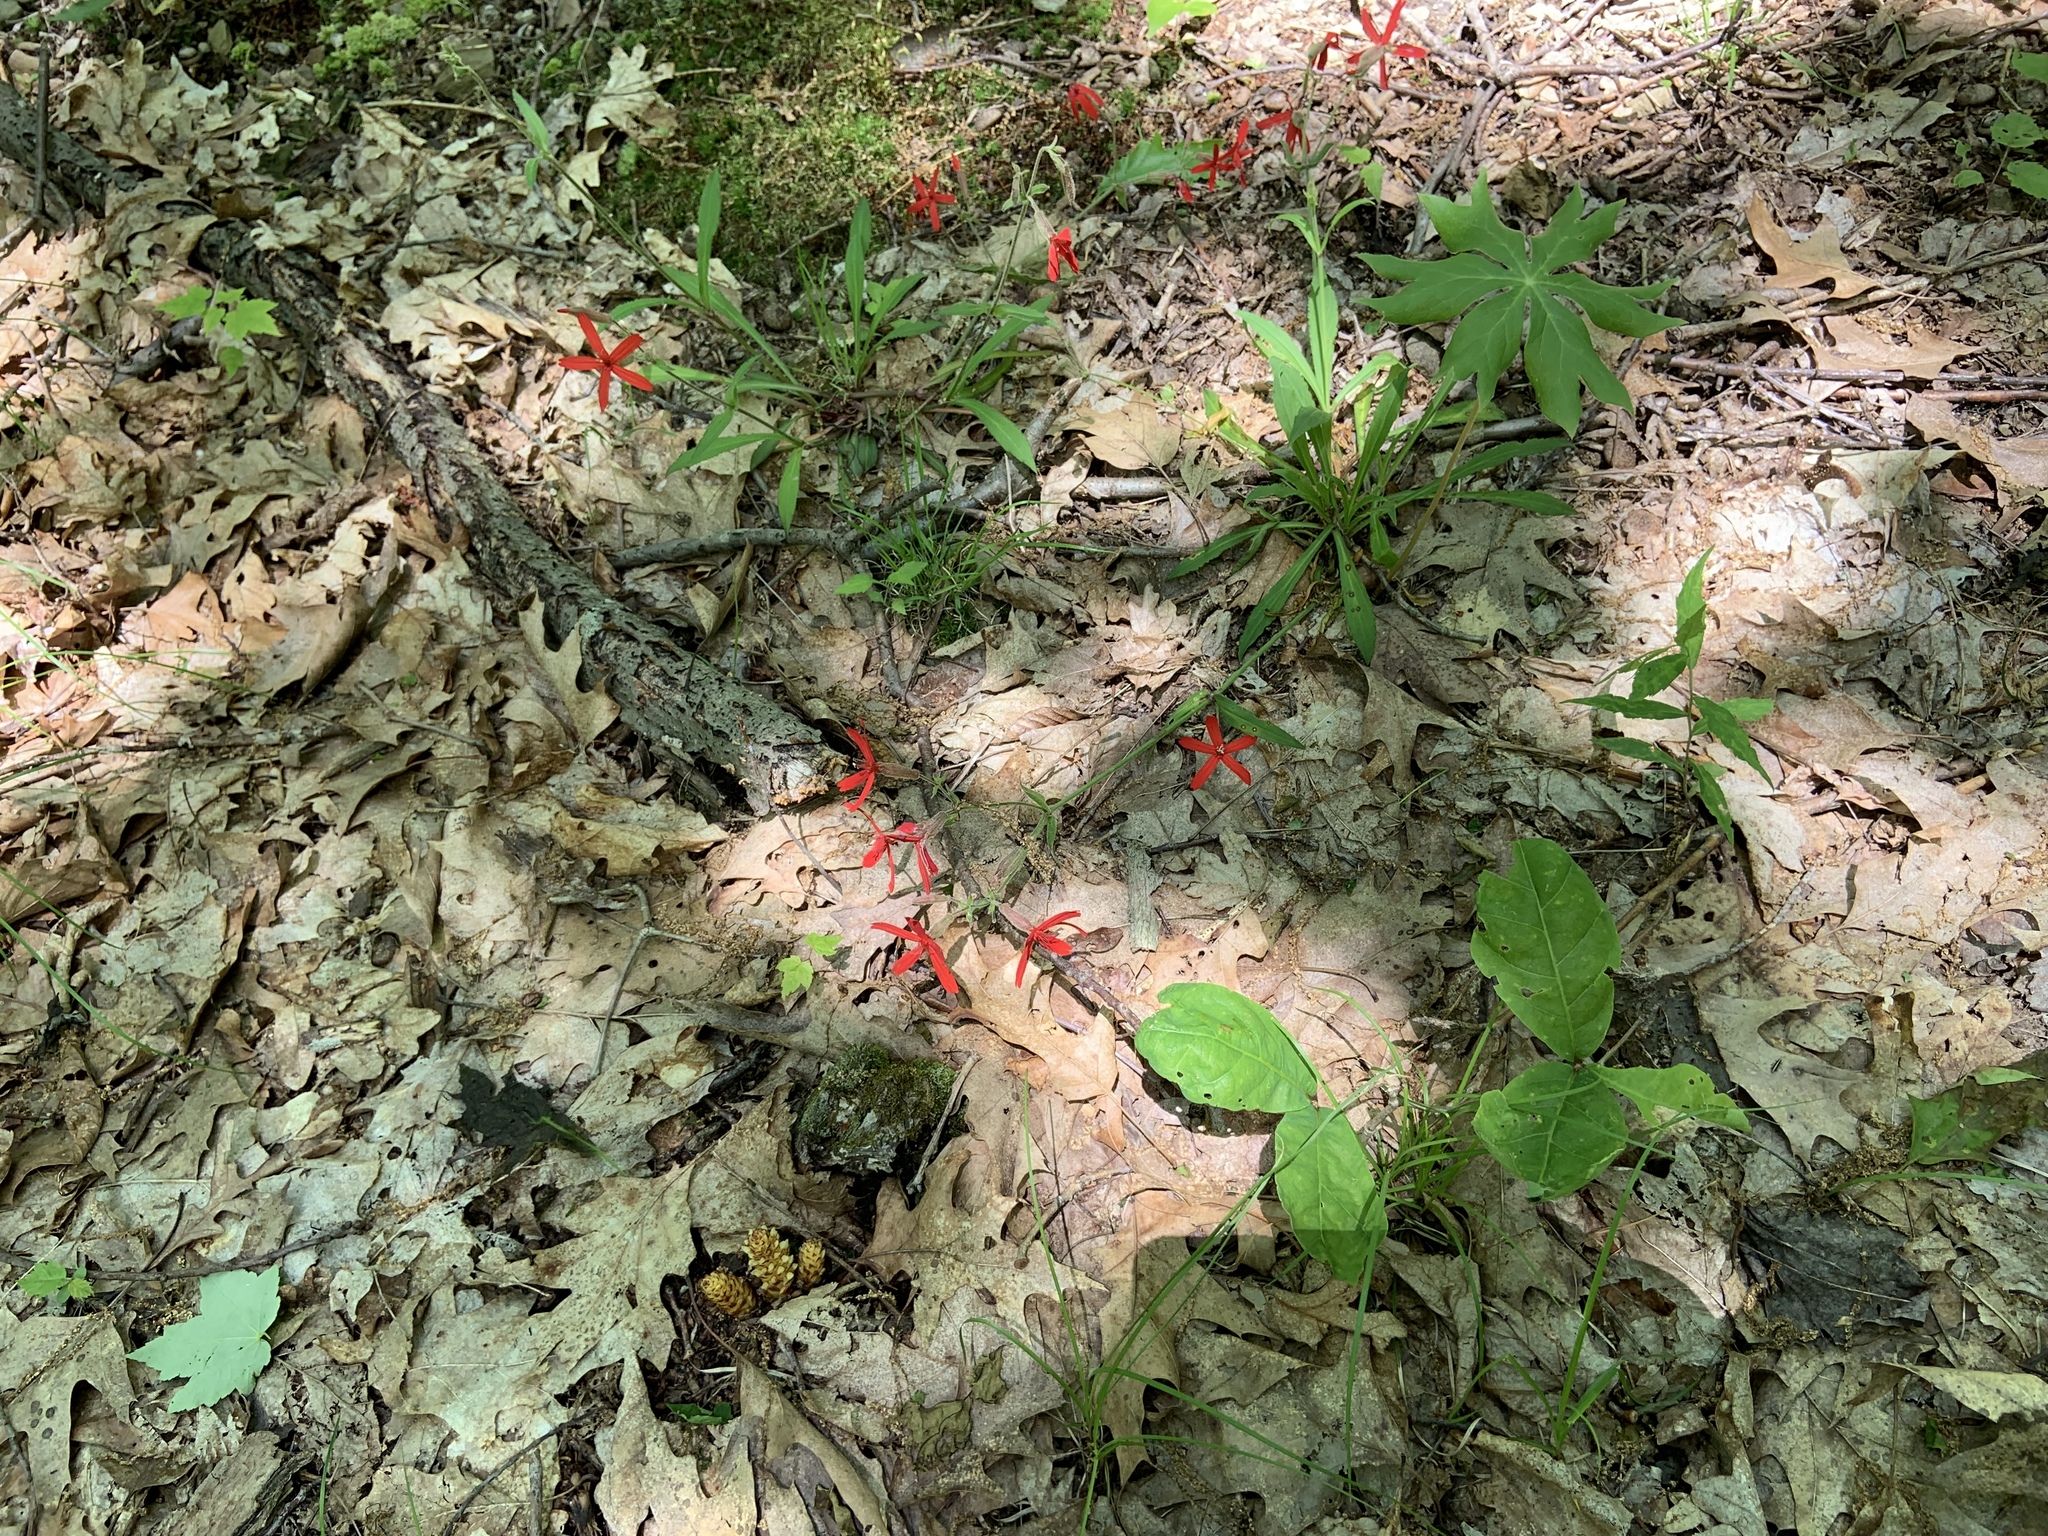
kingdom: Plantae
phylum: Tracheophyta
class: Magnoliopsida
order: Caryophyllales
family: Caryophyllaceae
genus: Silene
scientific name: Silene virginica
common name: Fire-pink
